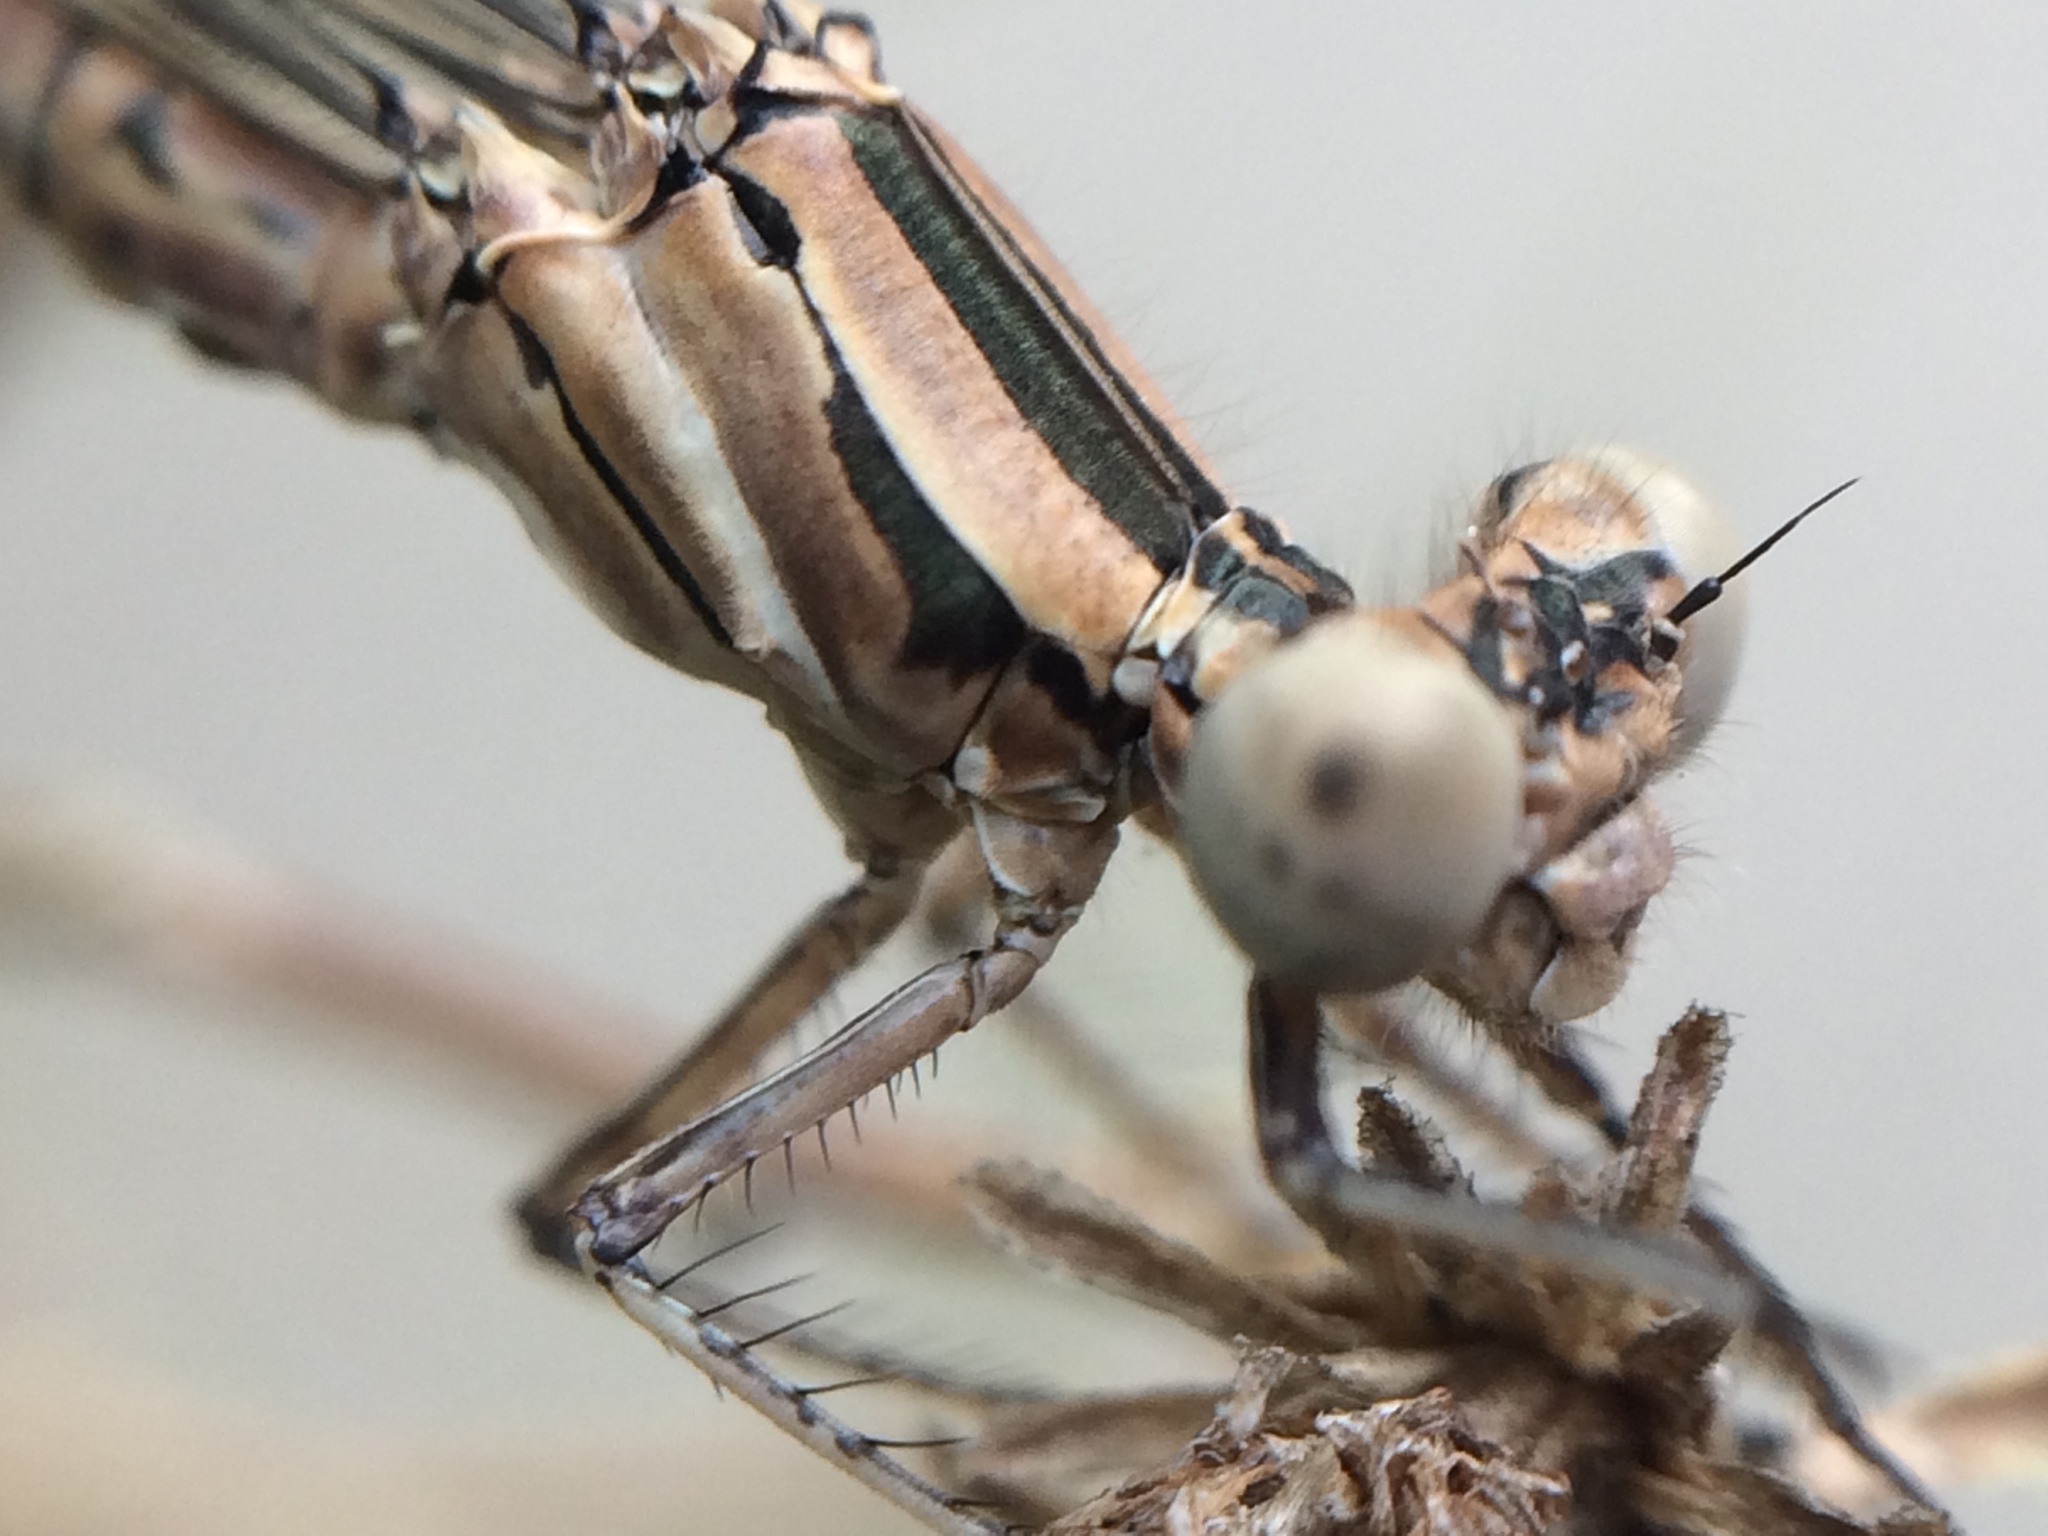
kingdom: Animalia
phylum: Arthropoda
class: Insecta
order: Odonata
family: Coenagrionidae
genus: Argia
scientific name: Argia vivida
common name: Vivid dancer
